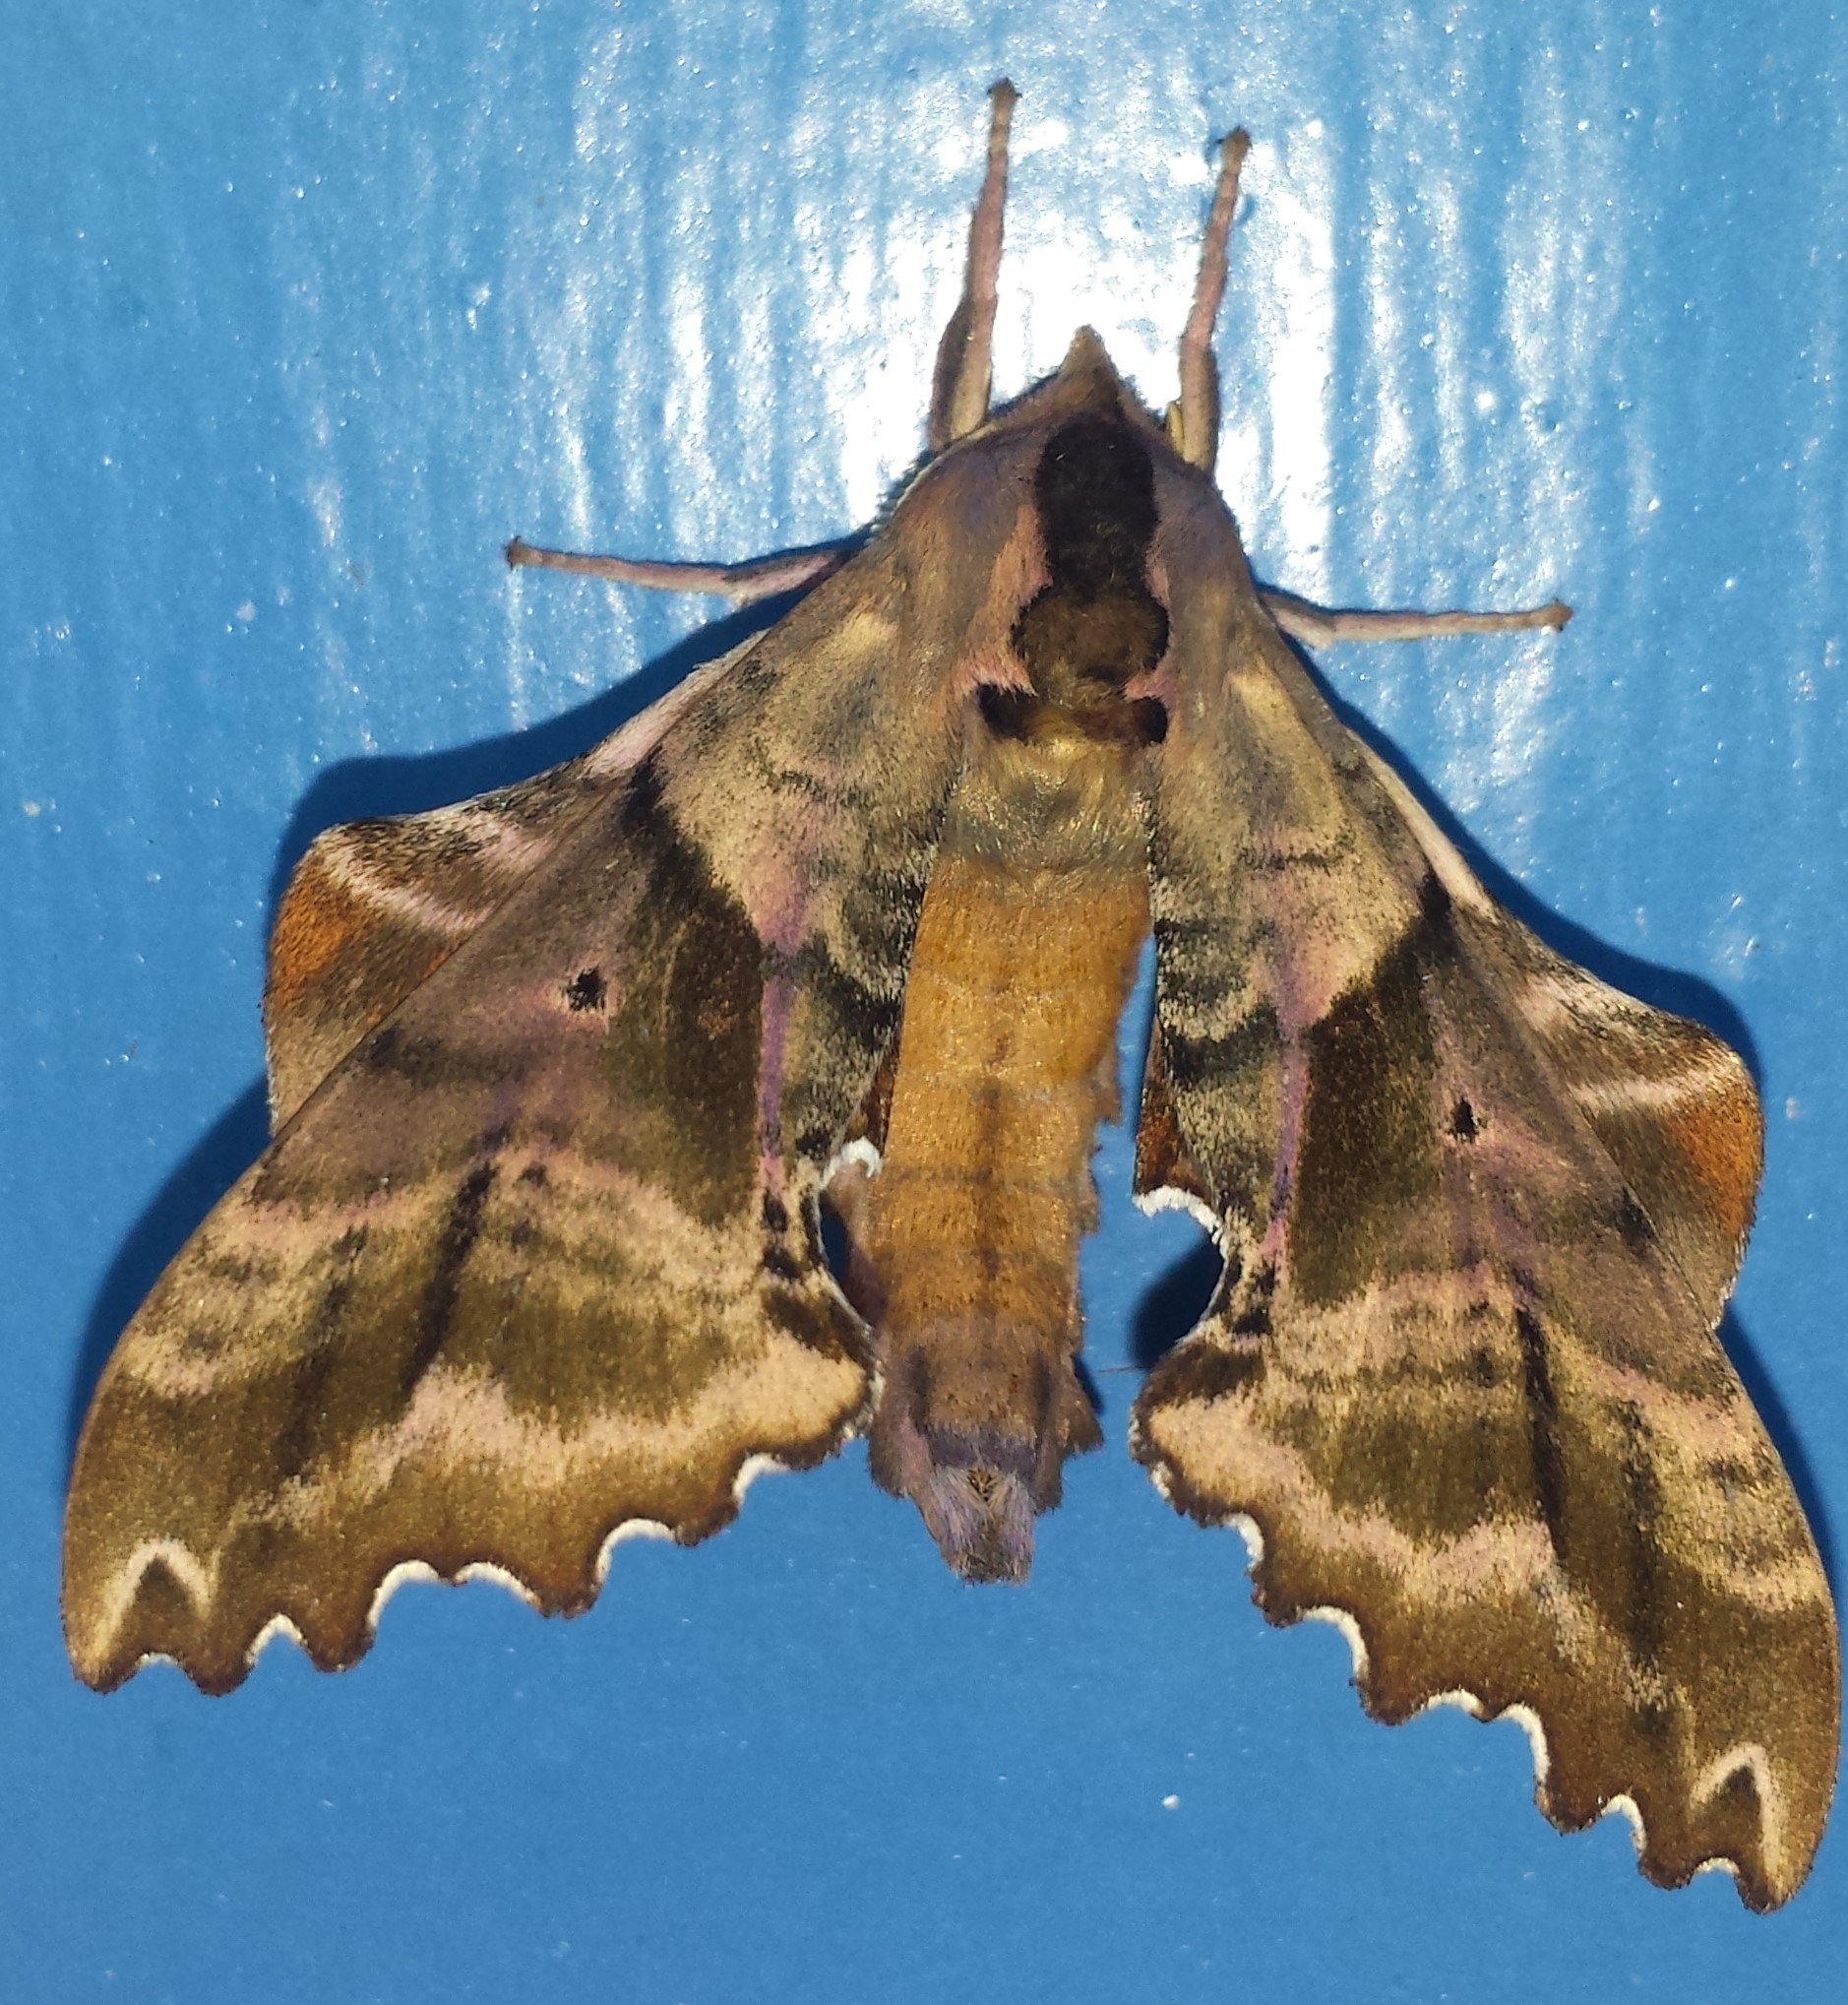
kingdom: Animalia
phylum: Arthropoda
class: Insecta
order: Lepidoptera
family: Sphingidae
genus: Paonias
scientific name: Paonias excaecata
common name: Blind-eyed sphinx
